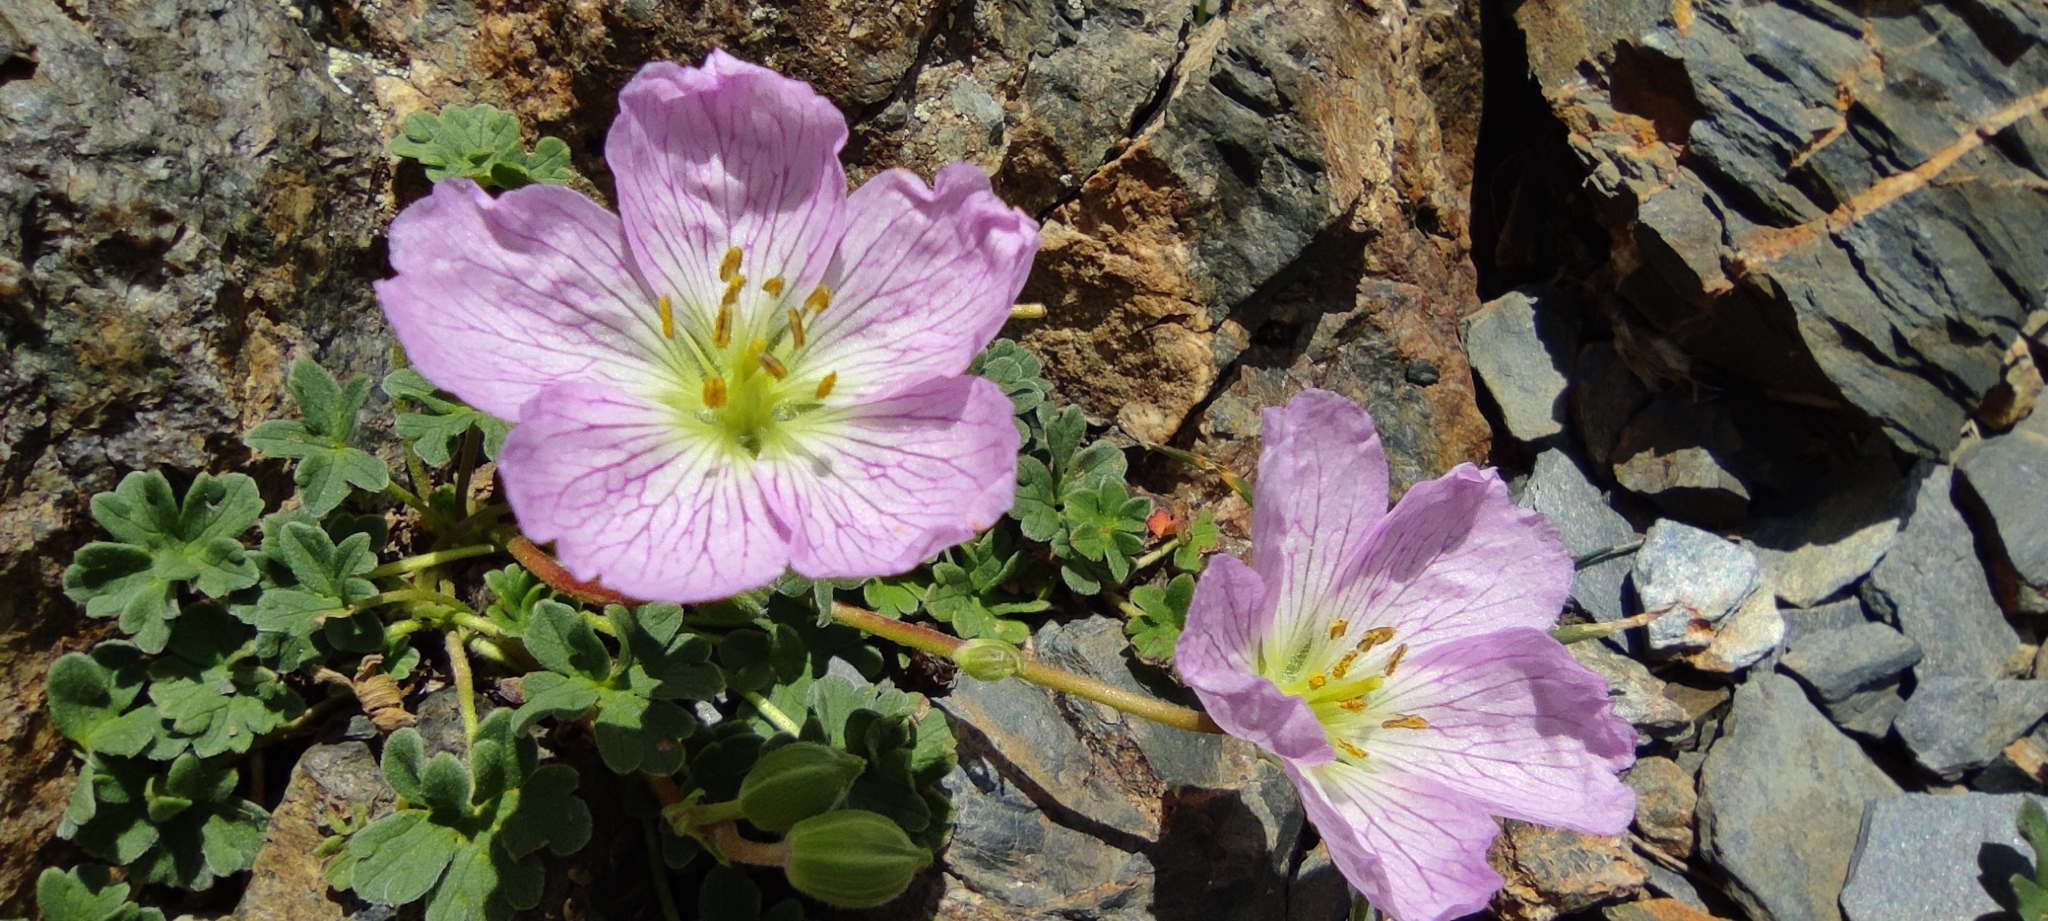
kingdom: Plantae
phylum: Tracheophyta
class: Magnoliopsida
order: Geraniales
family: Geraniaceae
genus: Geranium
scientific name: Geranium cinereum
